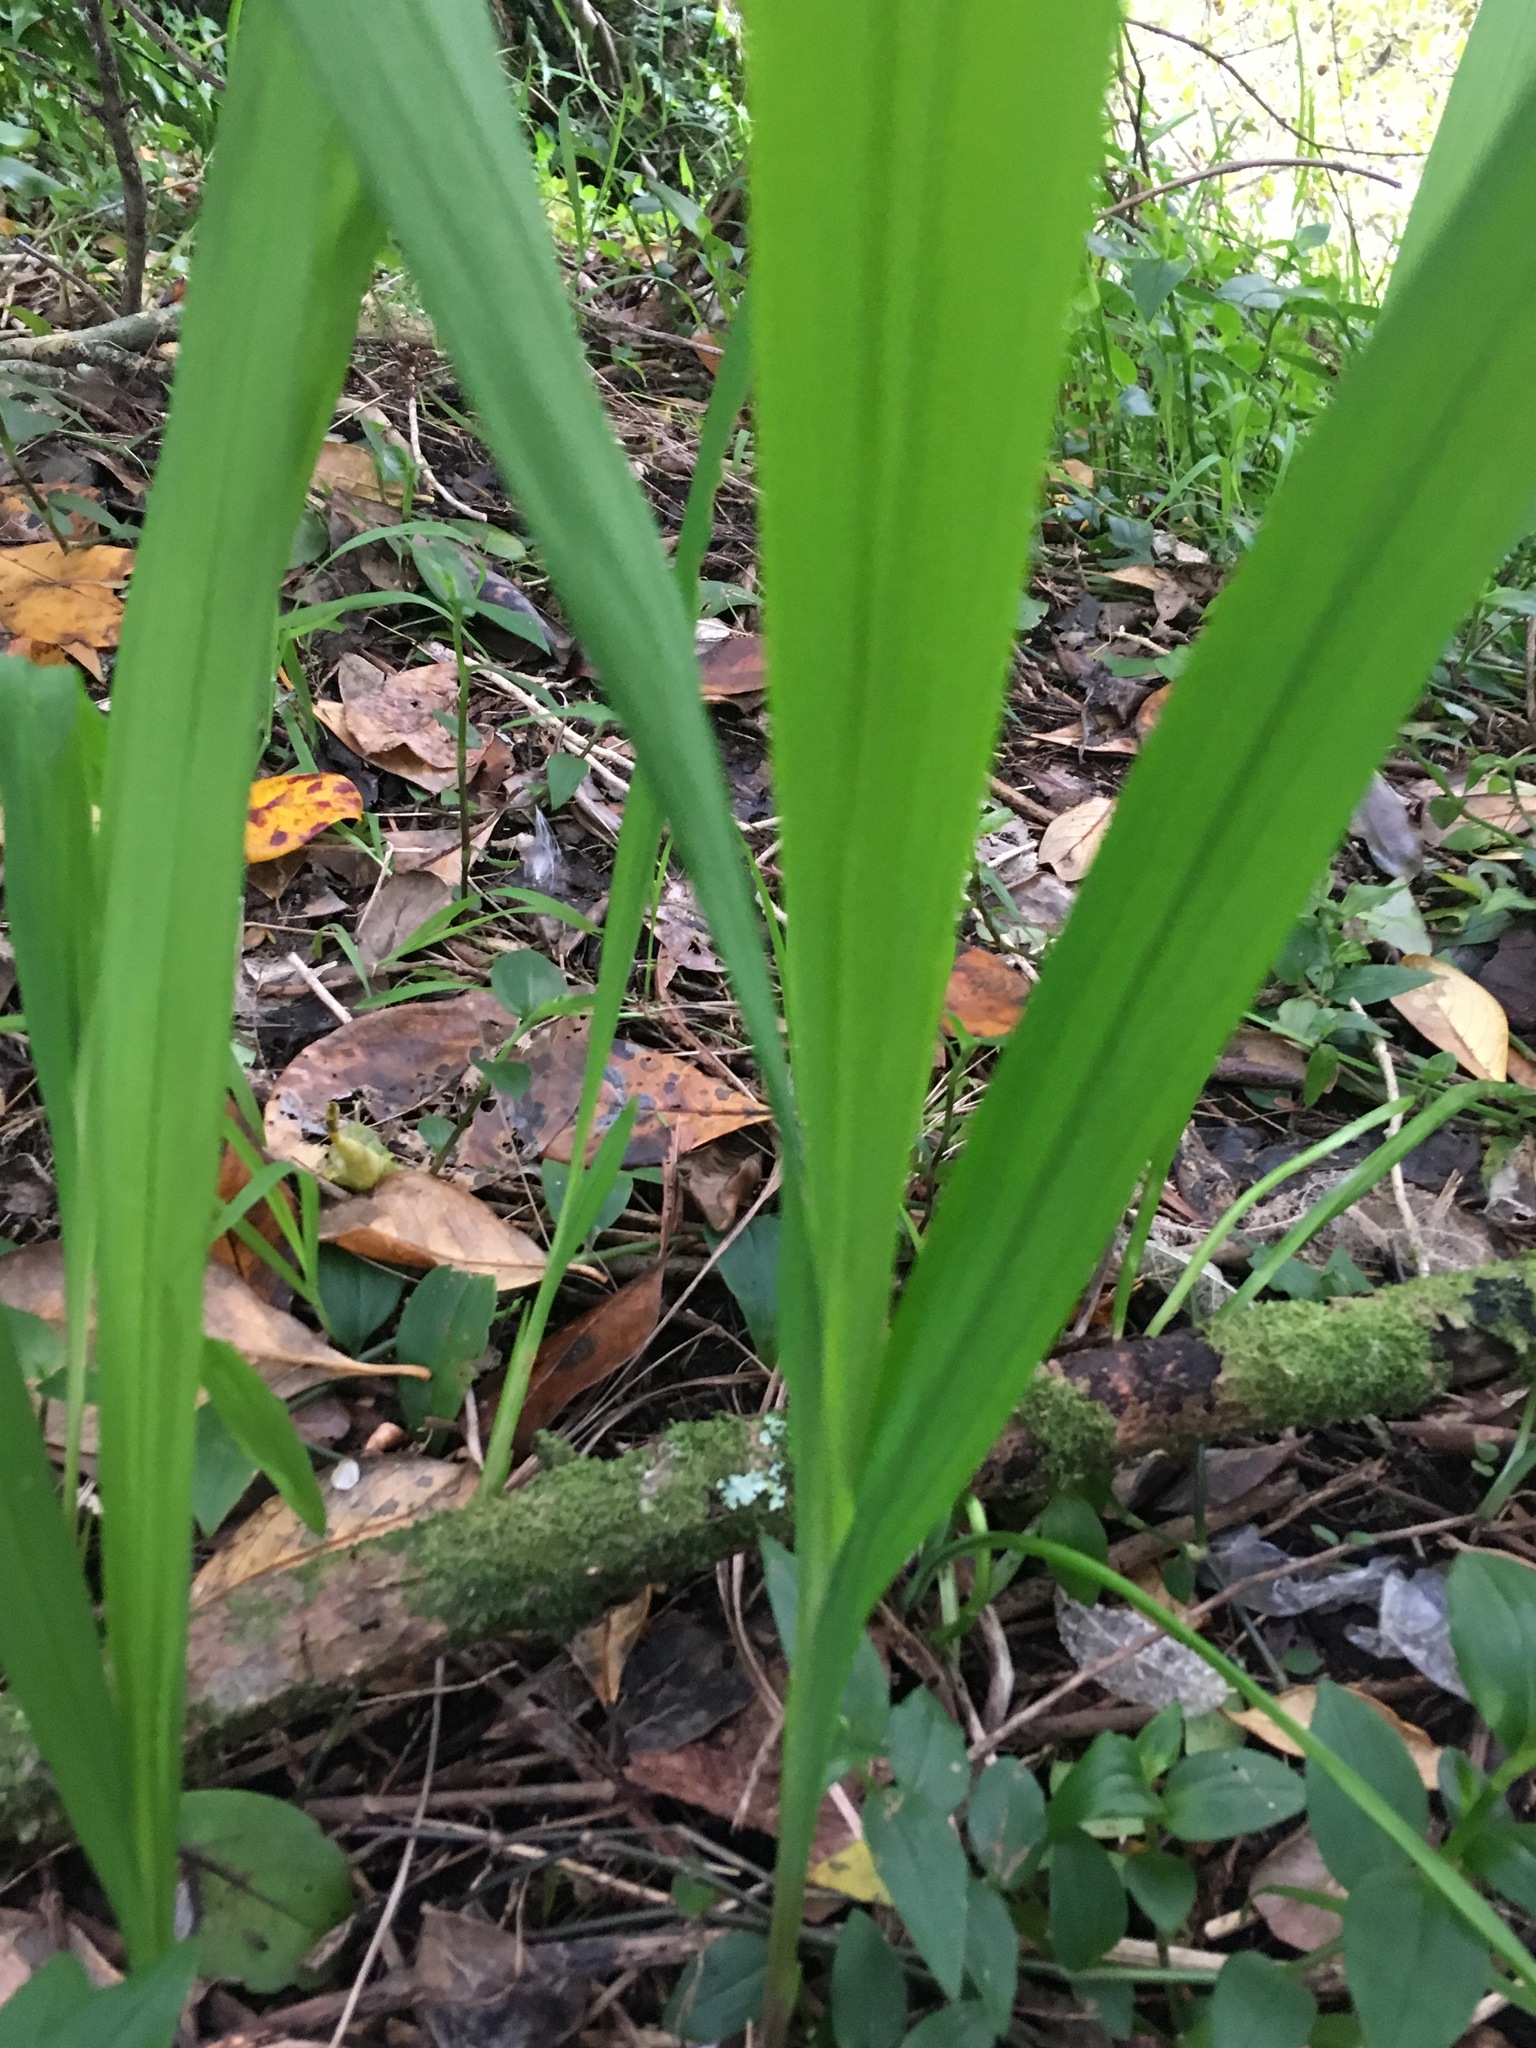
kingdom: Plantae
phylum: Tracheophyta
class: Liliopsida
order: Asparagales
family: Iridaceae
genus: Crocosmia
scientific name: Crocosmia crocosmiiflora
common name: Montbretia
